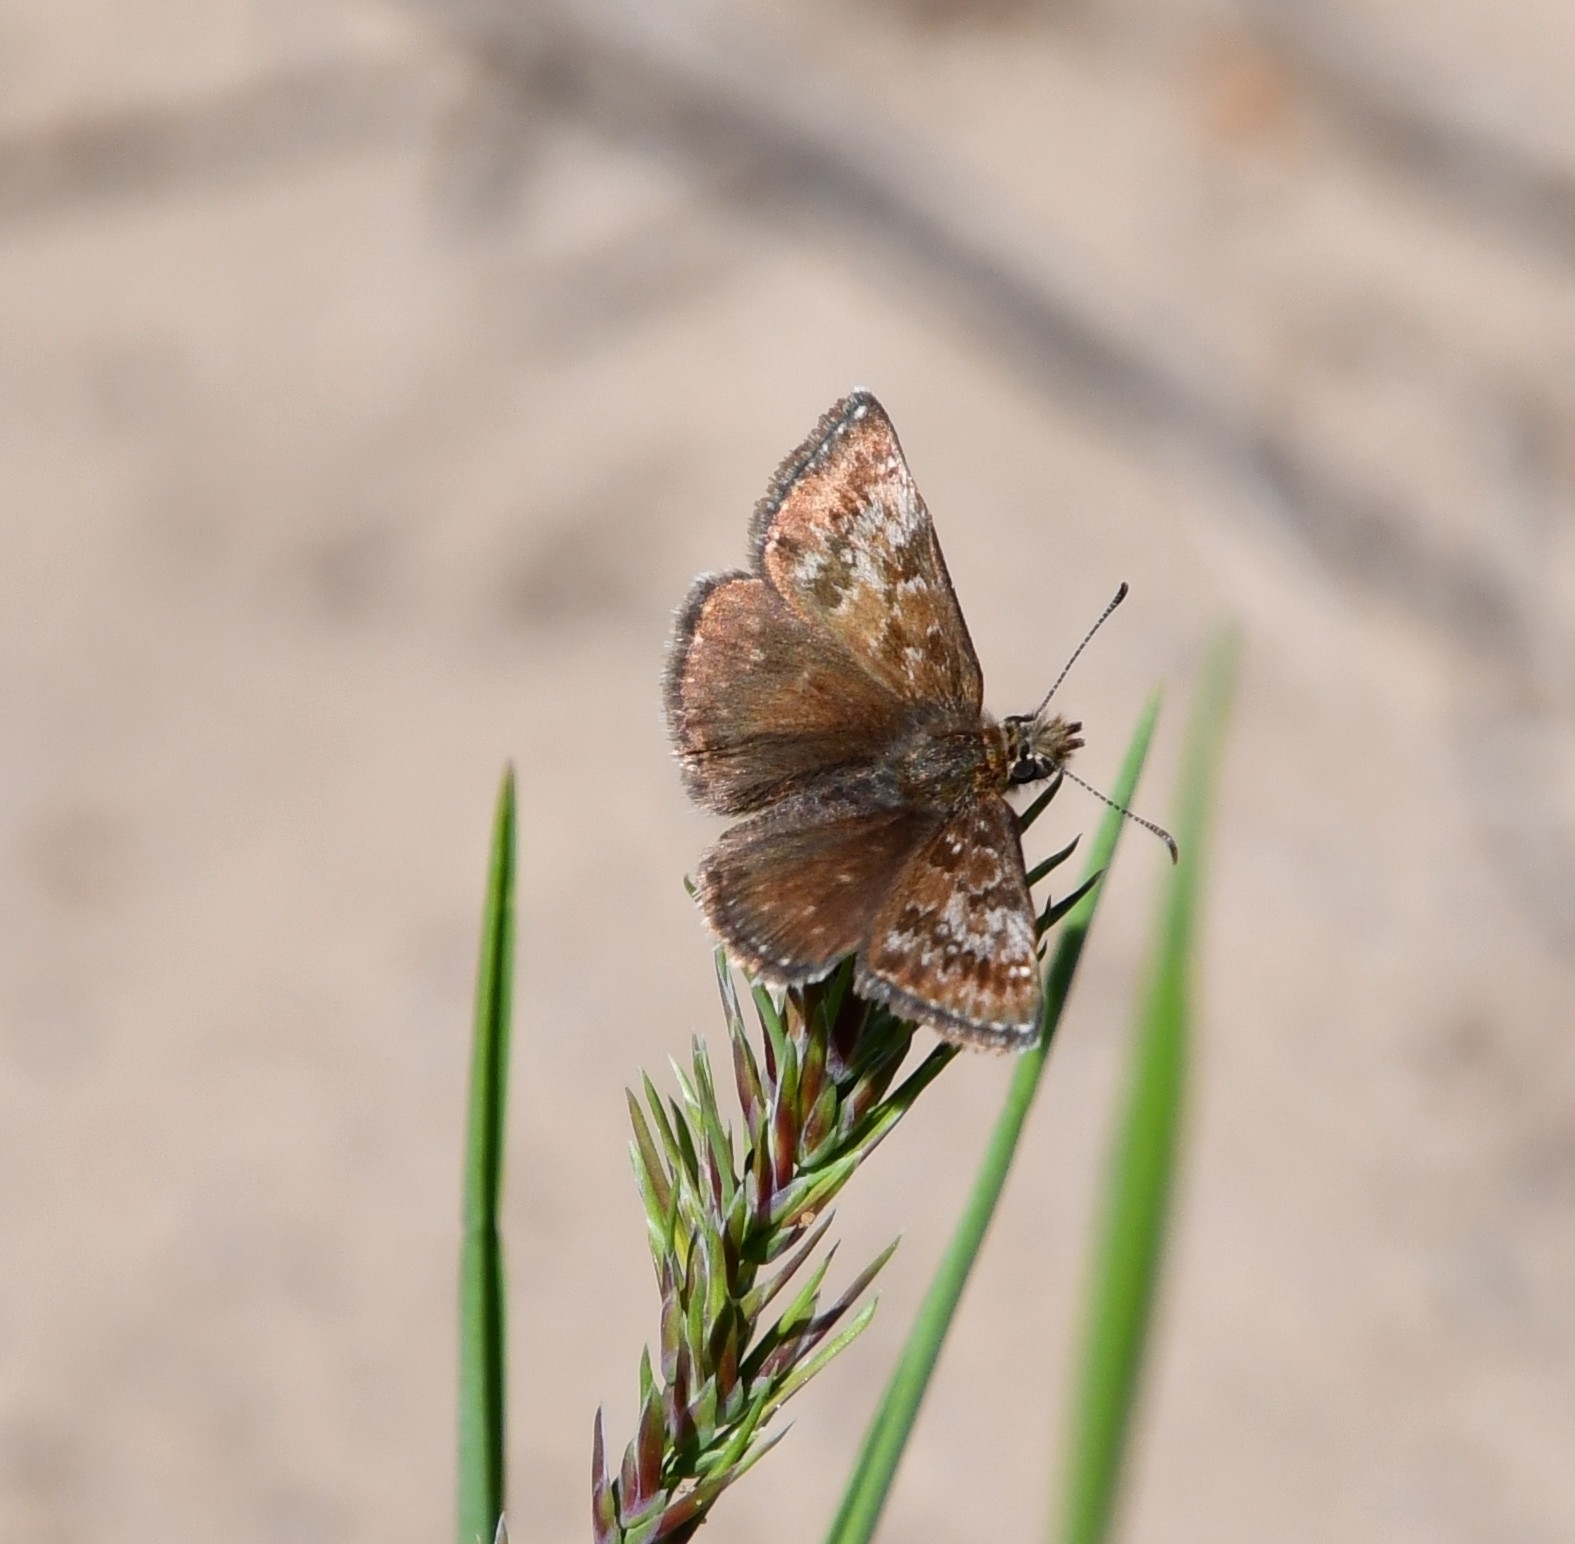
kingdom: Animalia
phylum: Arthropoda
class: Insecta
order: Lepidoptera
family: Hesperiidae
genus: Erynnis
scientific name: Erynnis tages
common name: Dingy skipper
